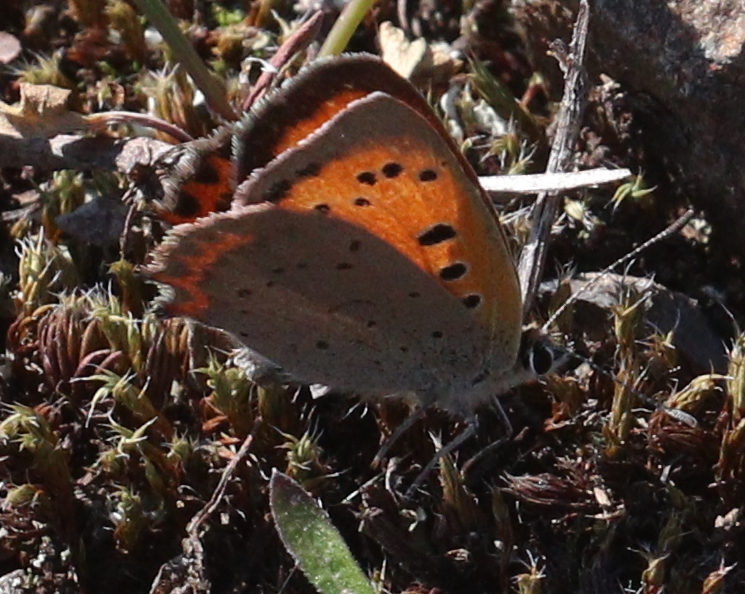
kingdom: Animalia
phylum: Arthropoda
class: Insecta
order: Lepidoptera
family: Lycaenidae
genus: Lycaena
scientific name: Lycaena phlaeas
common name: Small copper
